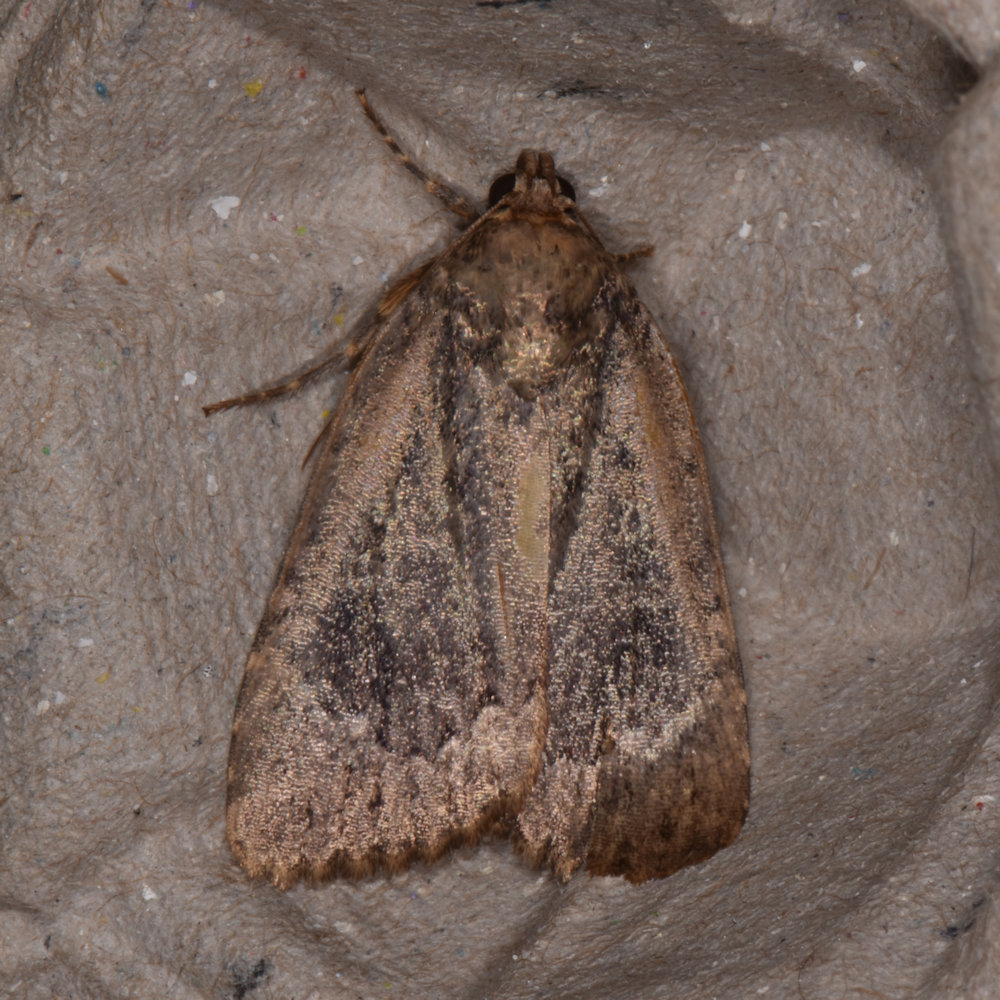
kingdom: Animalia
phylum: Arthropoda
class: Insecta
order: Lepidoptera
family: Noctuidae
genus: Amphipyra
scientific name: Amphipyra pyramidoides
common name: American copper underwing
